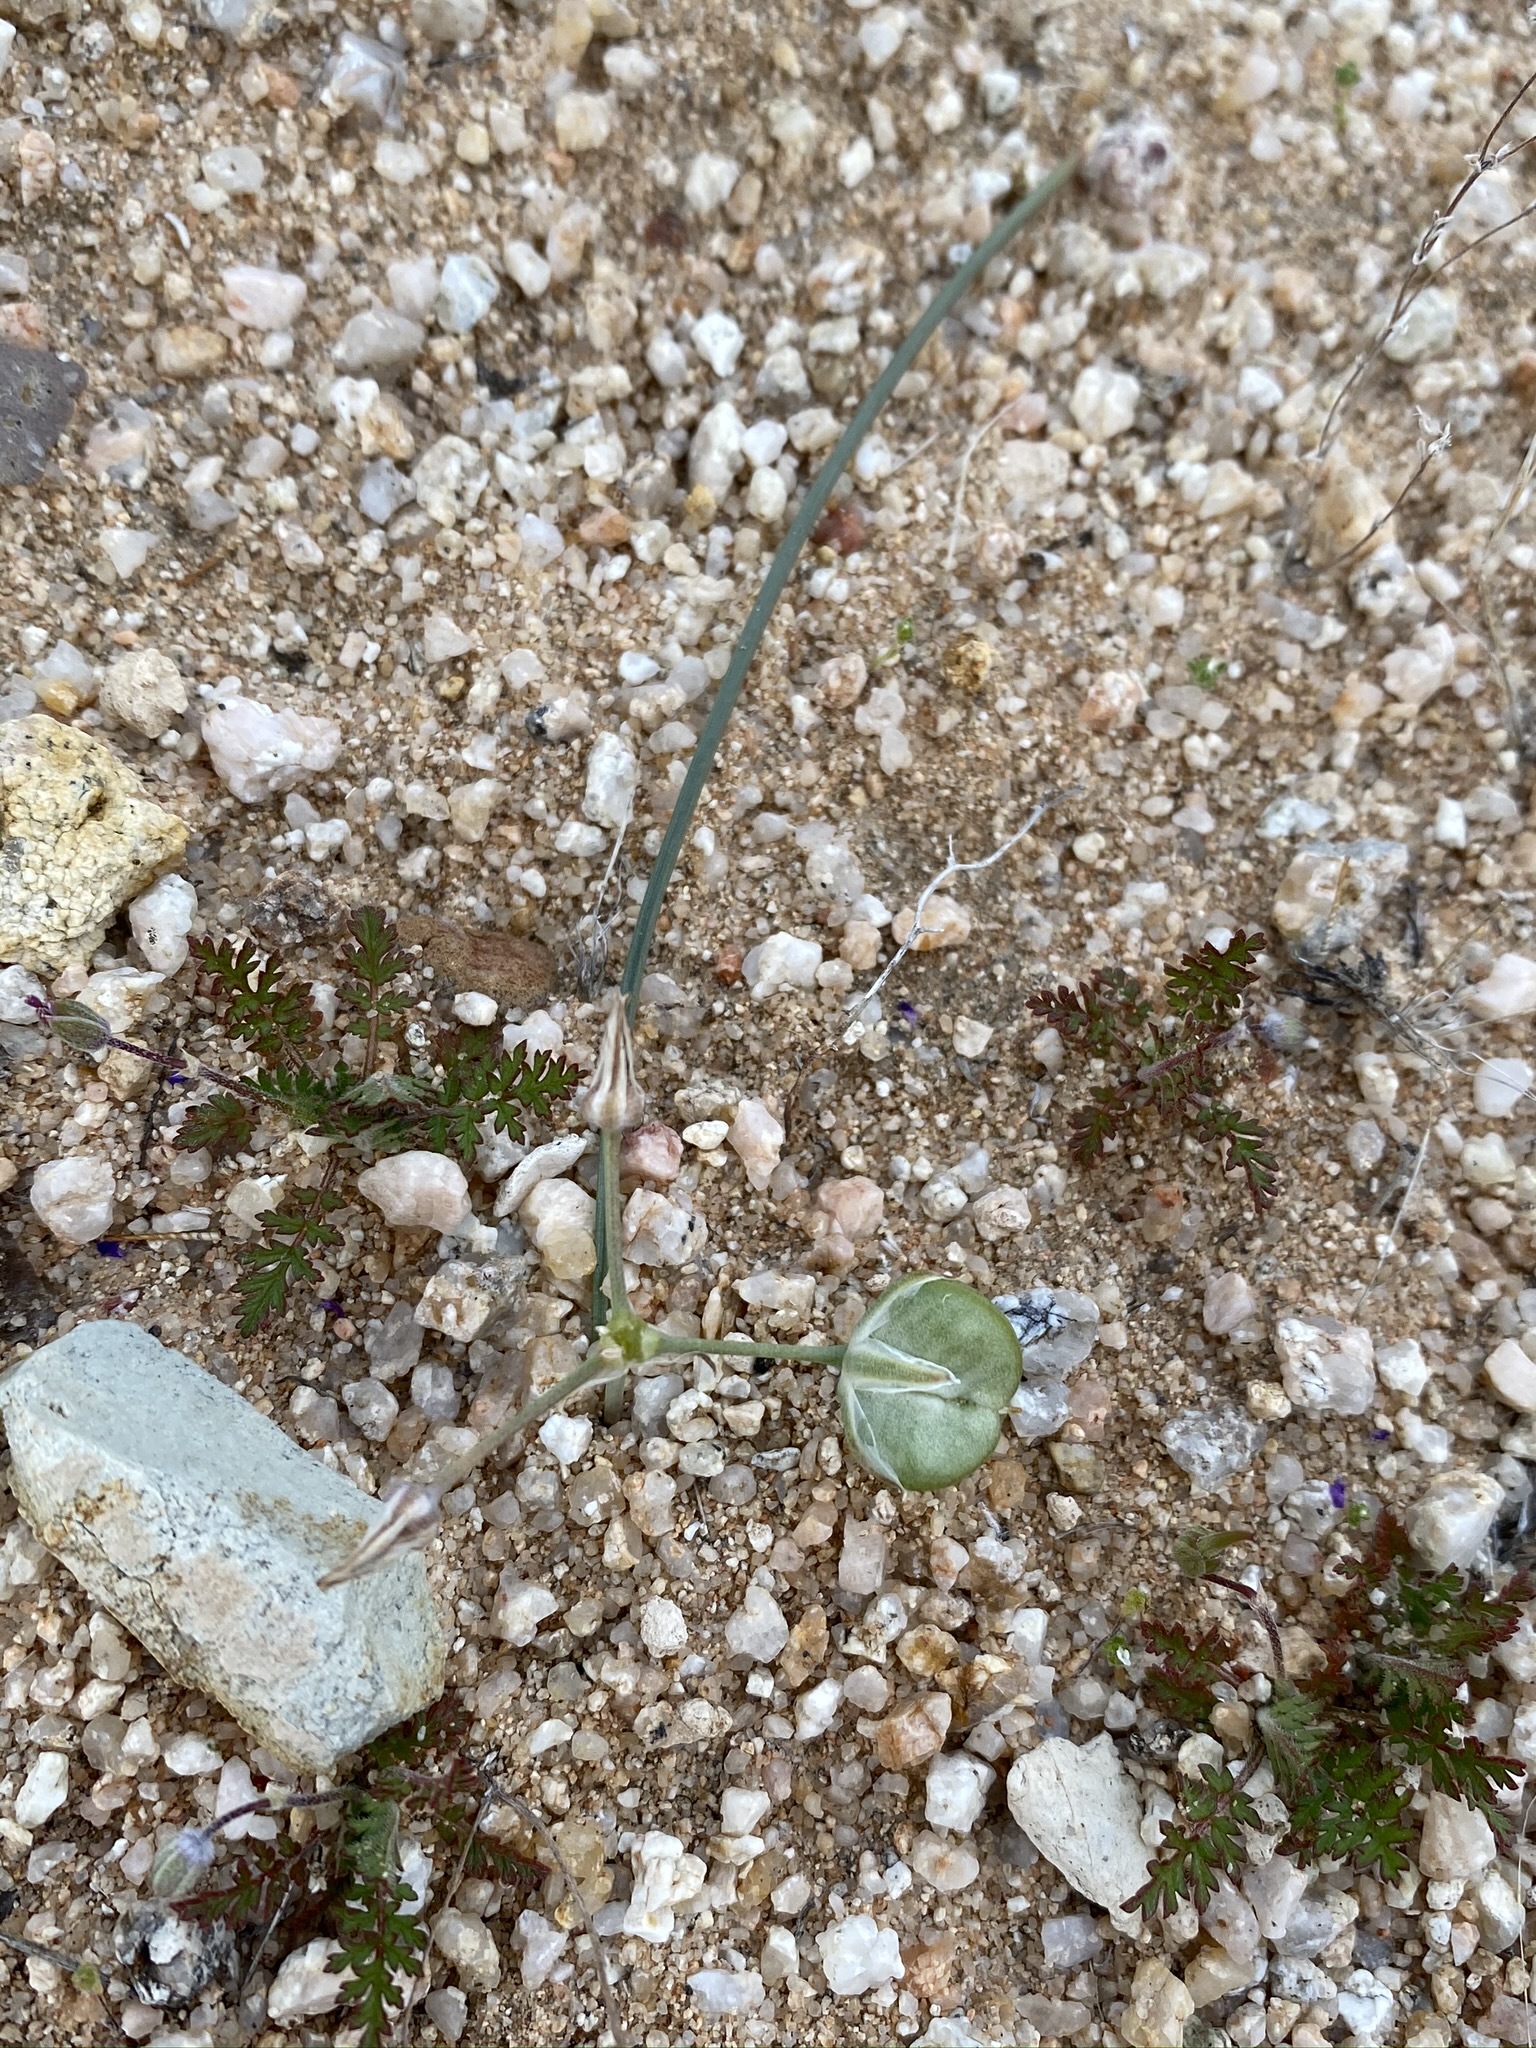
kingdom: Plantae
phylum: Tracheophyta
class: Liliopsida
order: Asparagales
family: Asparagaceae
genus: Muilla
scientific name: Muilla coronata
